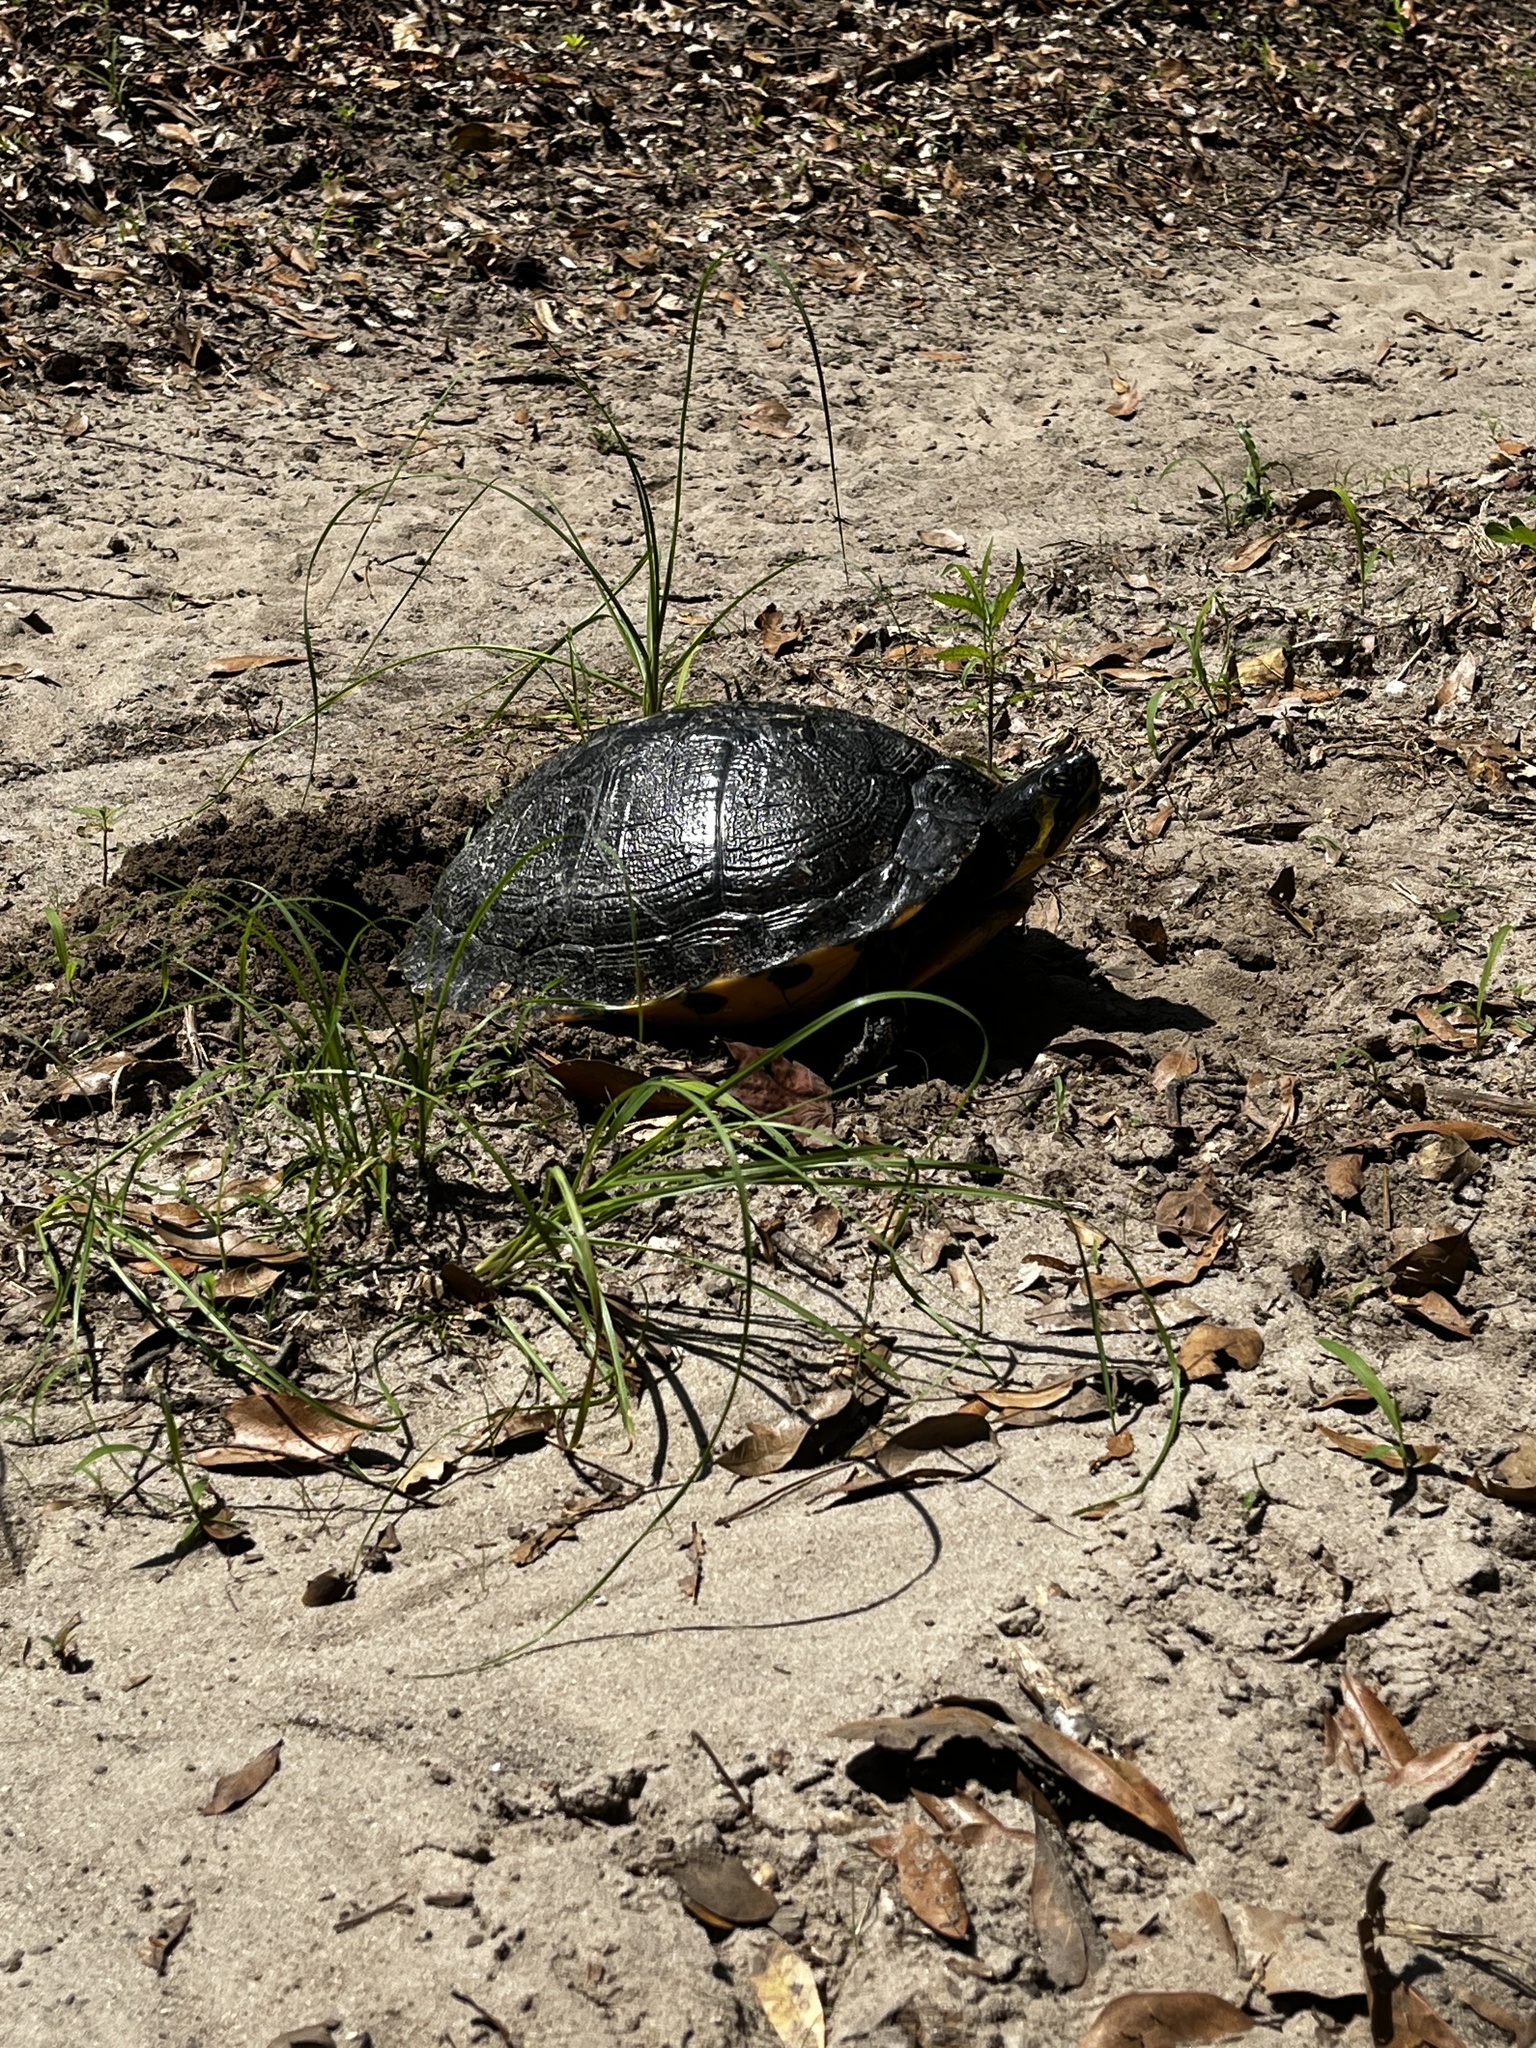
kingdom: Animalia
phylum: Chordata
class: Testudines
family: Emydidae
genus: Trachemys
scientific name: Trachemys scripta
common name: Slider
